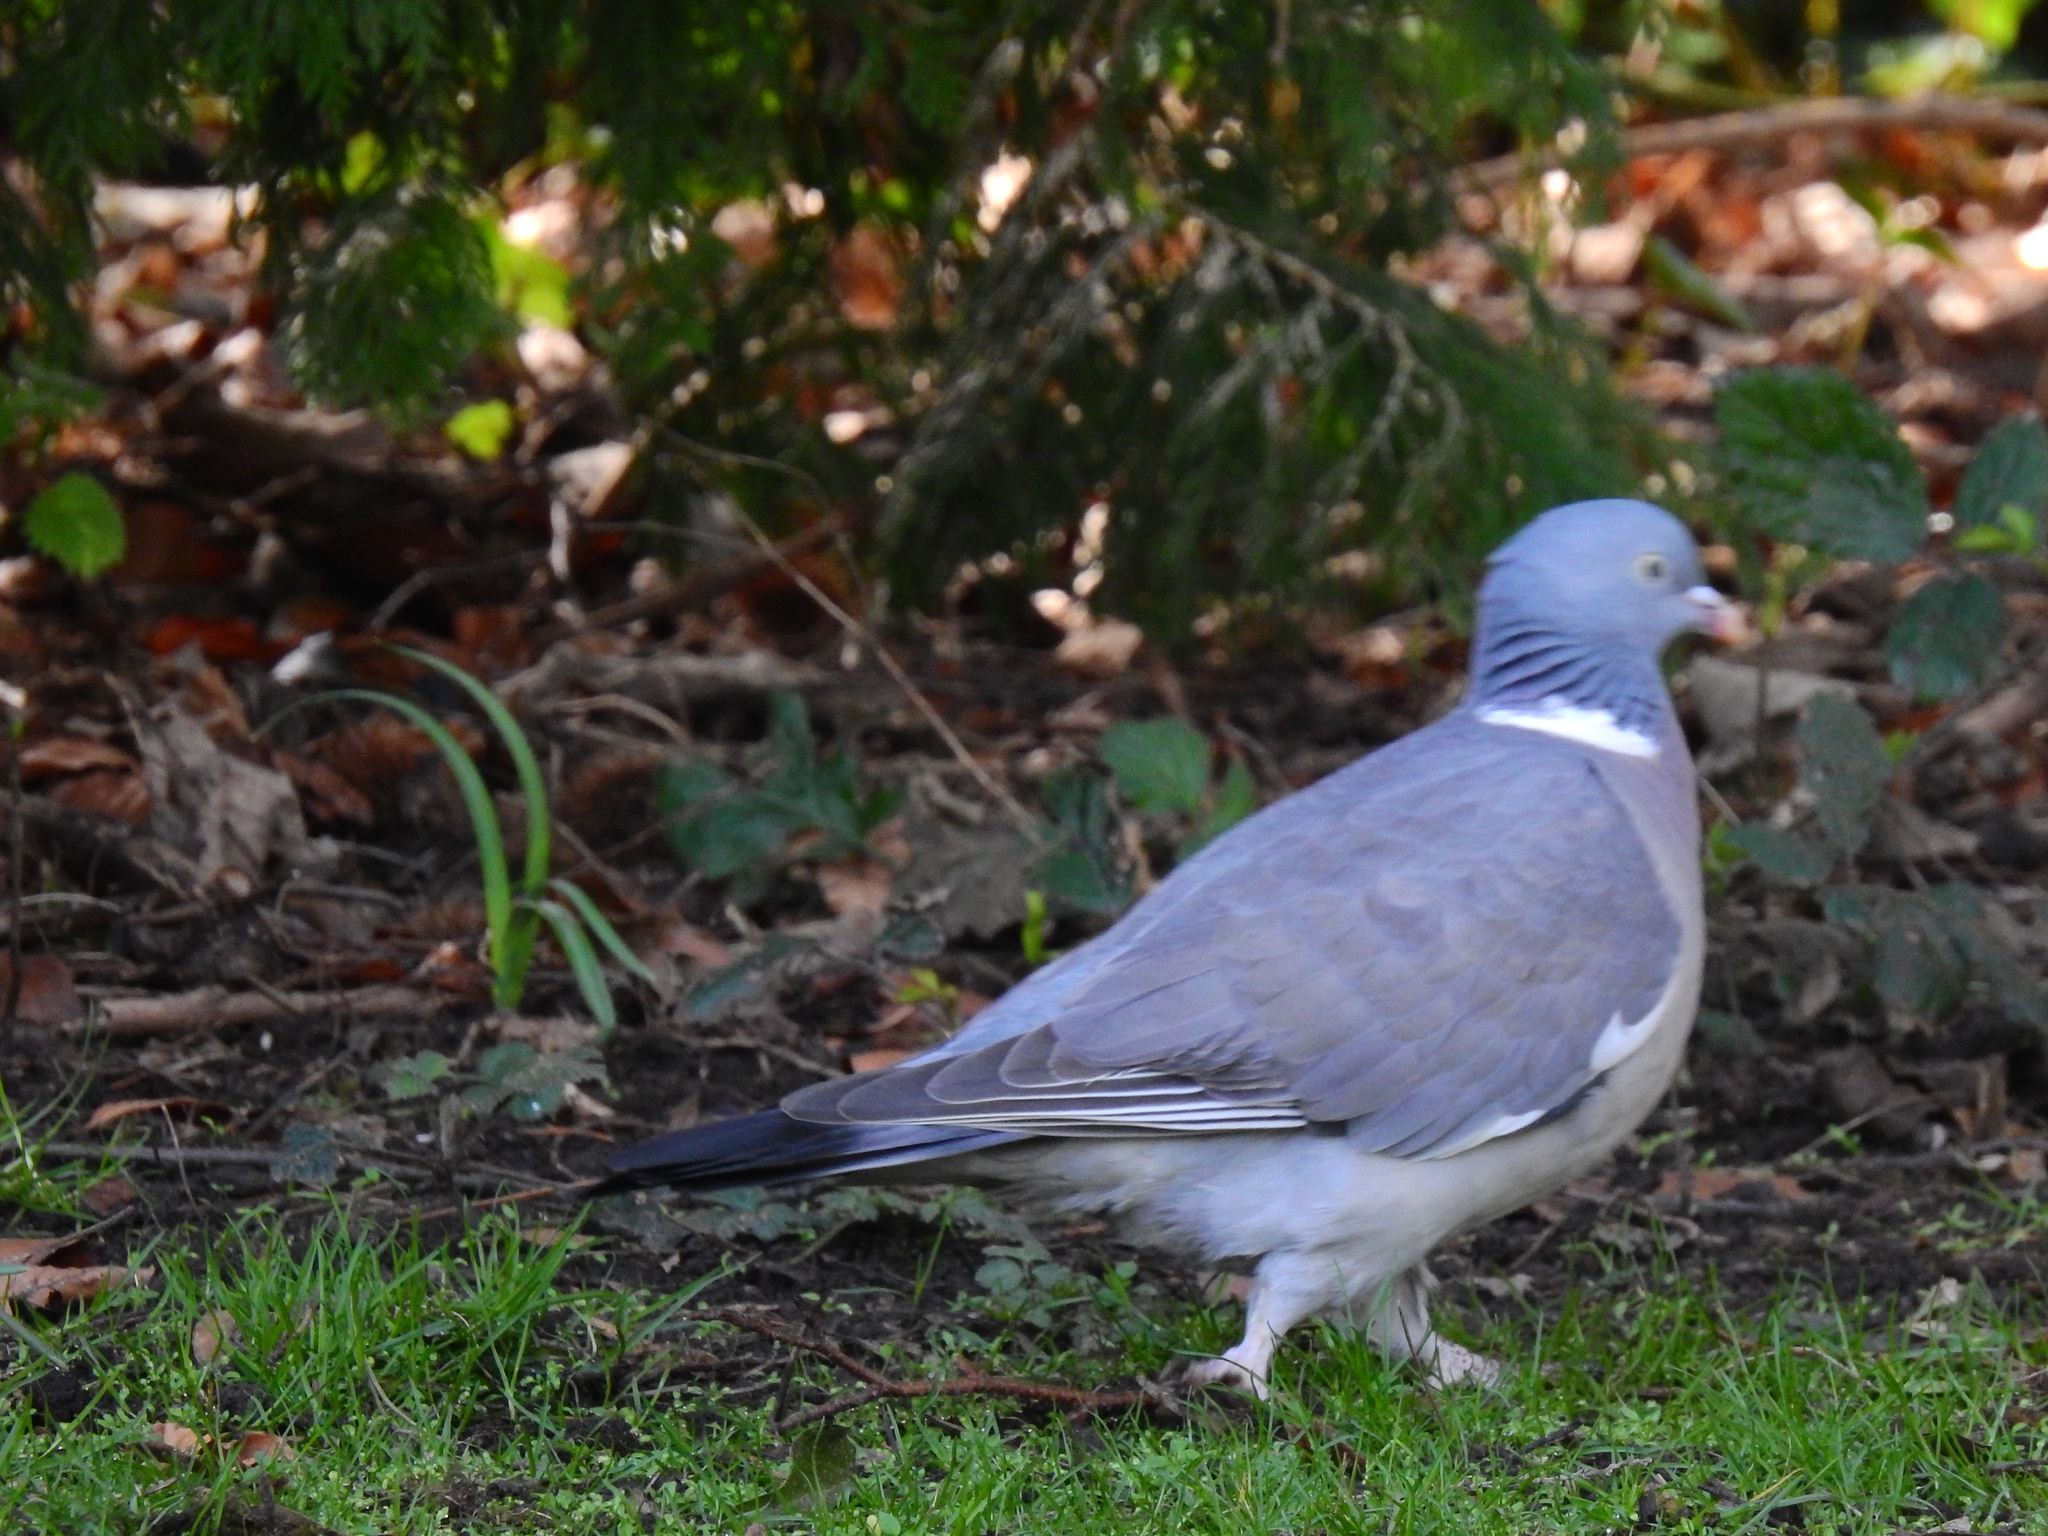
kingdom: Animalia
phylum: Chordata
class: Aves
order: Columbiformes
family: Columbidae
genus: Columba
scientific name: Columba palumbus
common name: Common wood pigeon
